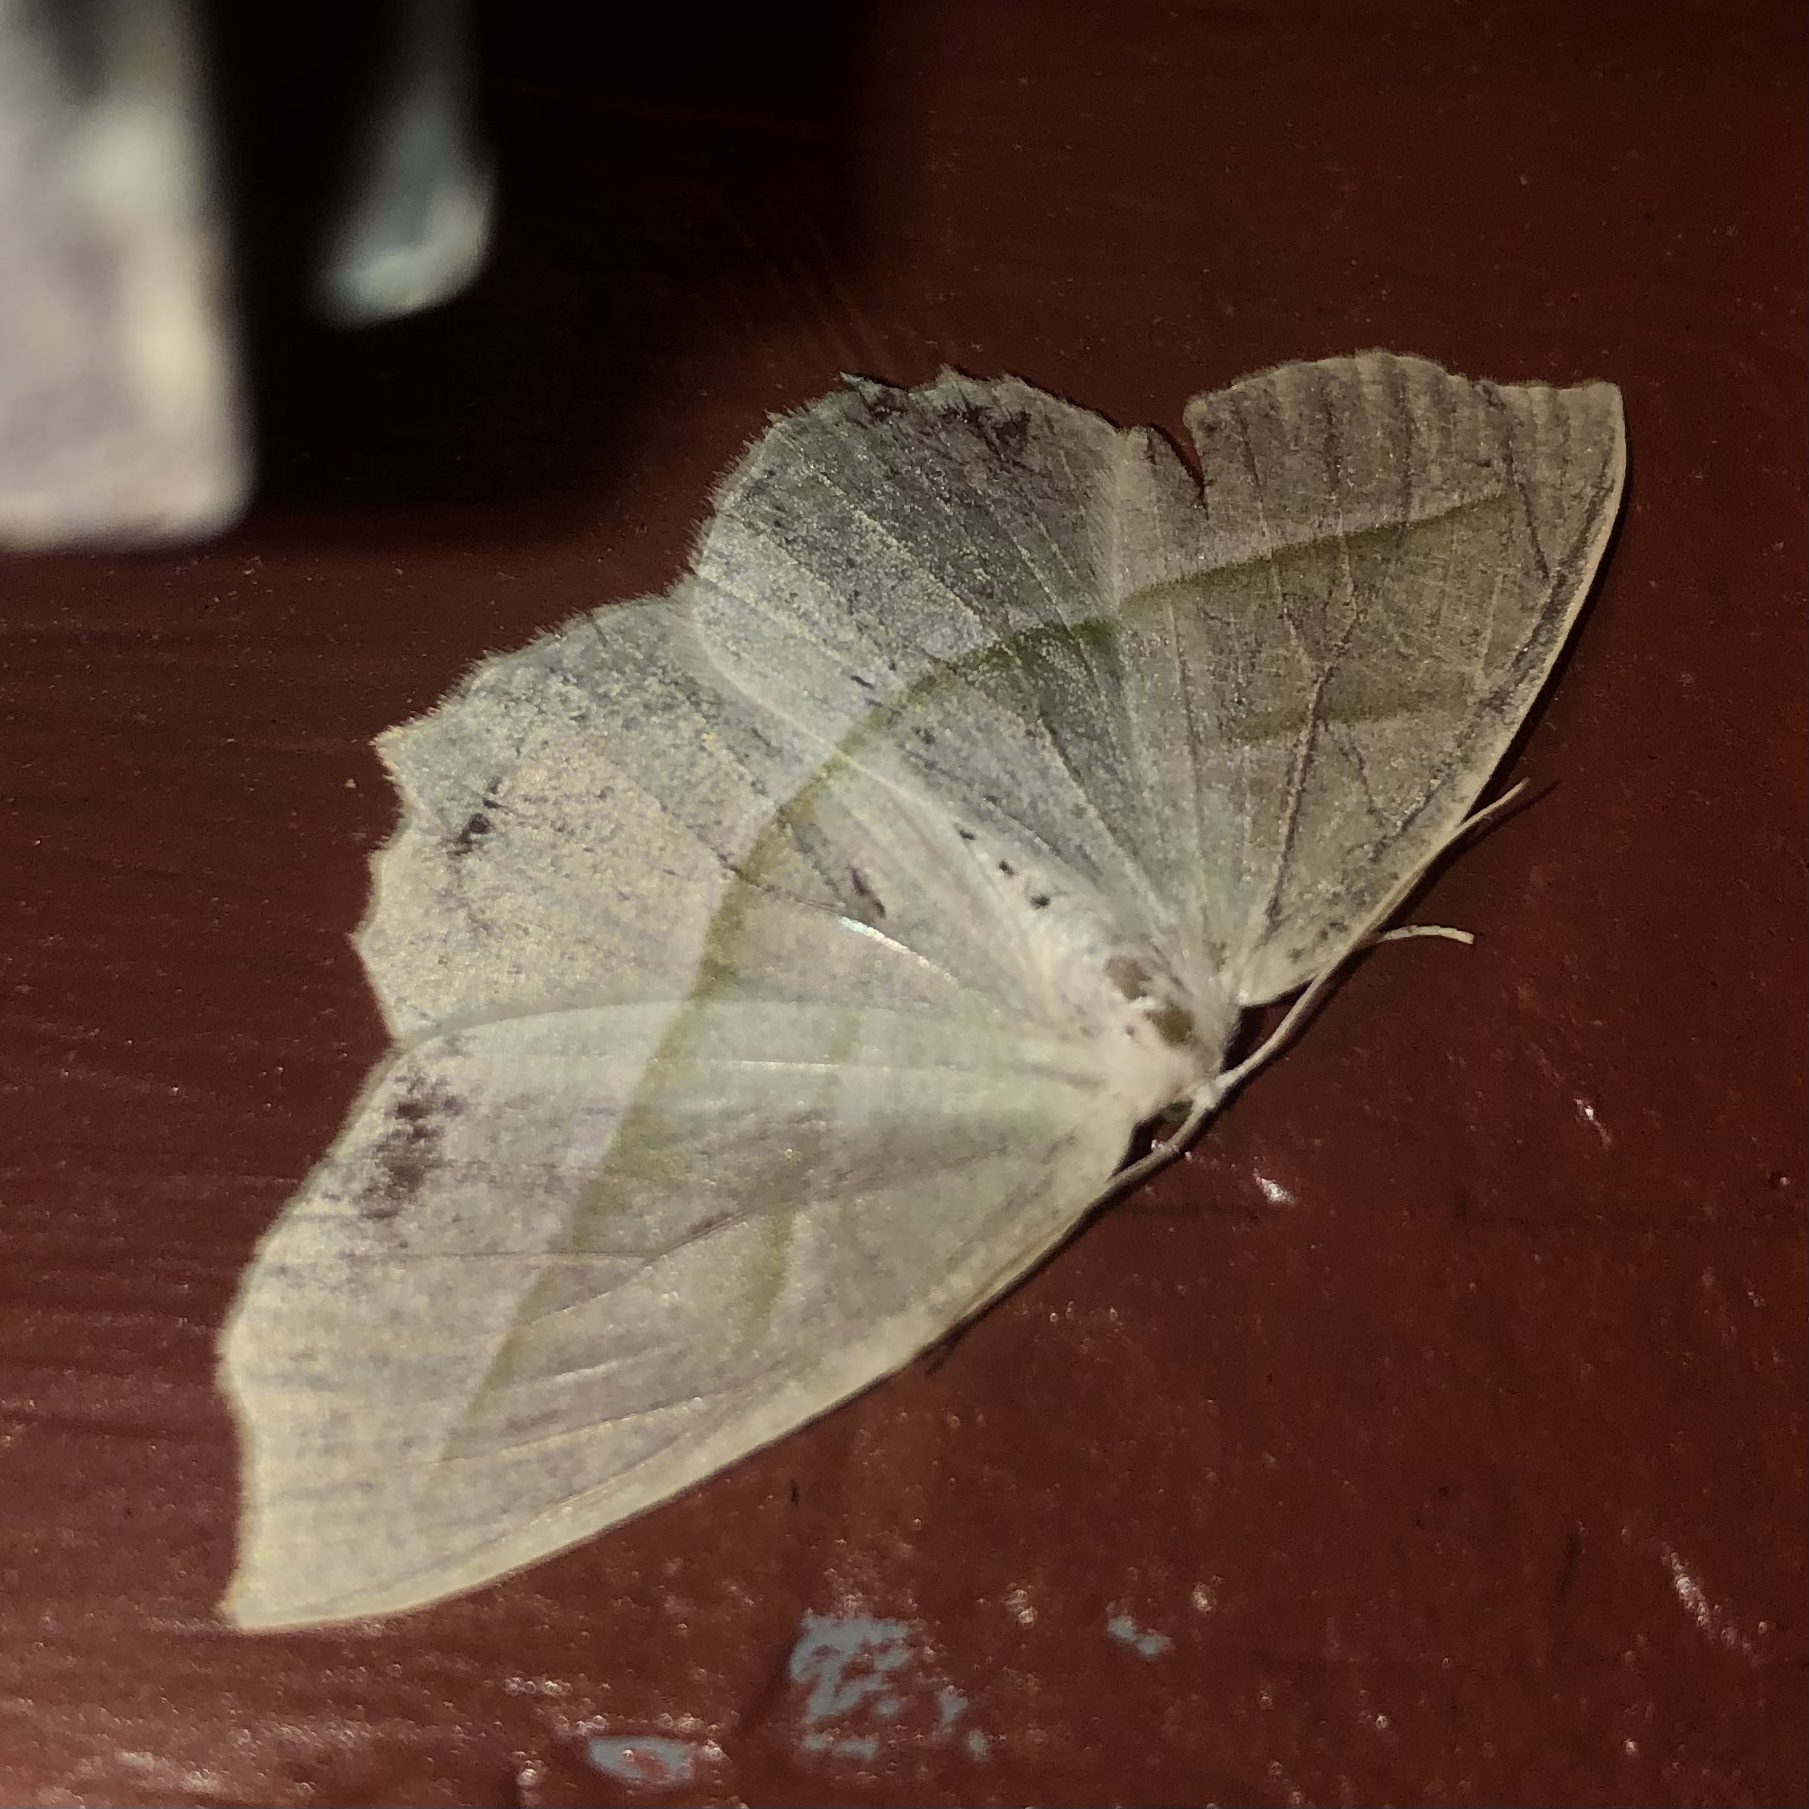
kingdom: Animalia
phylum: Arthropoda
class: Insecta
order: Lepidoptera
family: Geometridae
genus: Campaea
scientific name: Campaea perlata
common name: Fringed looper
